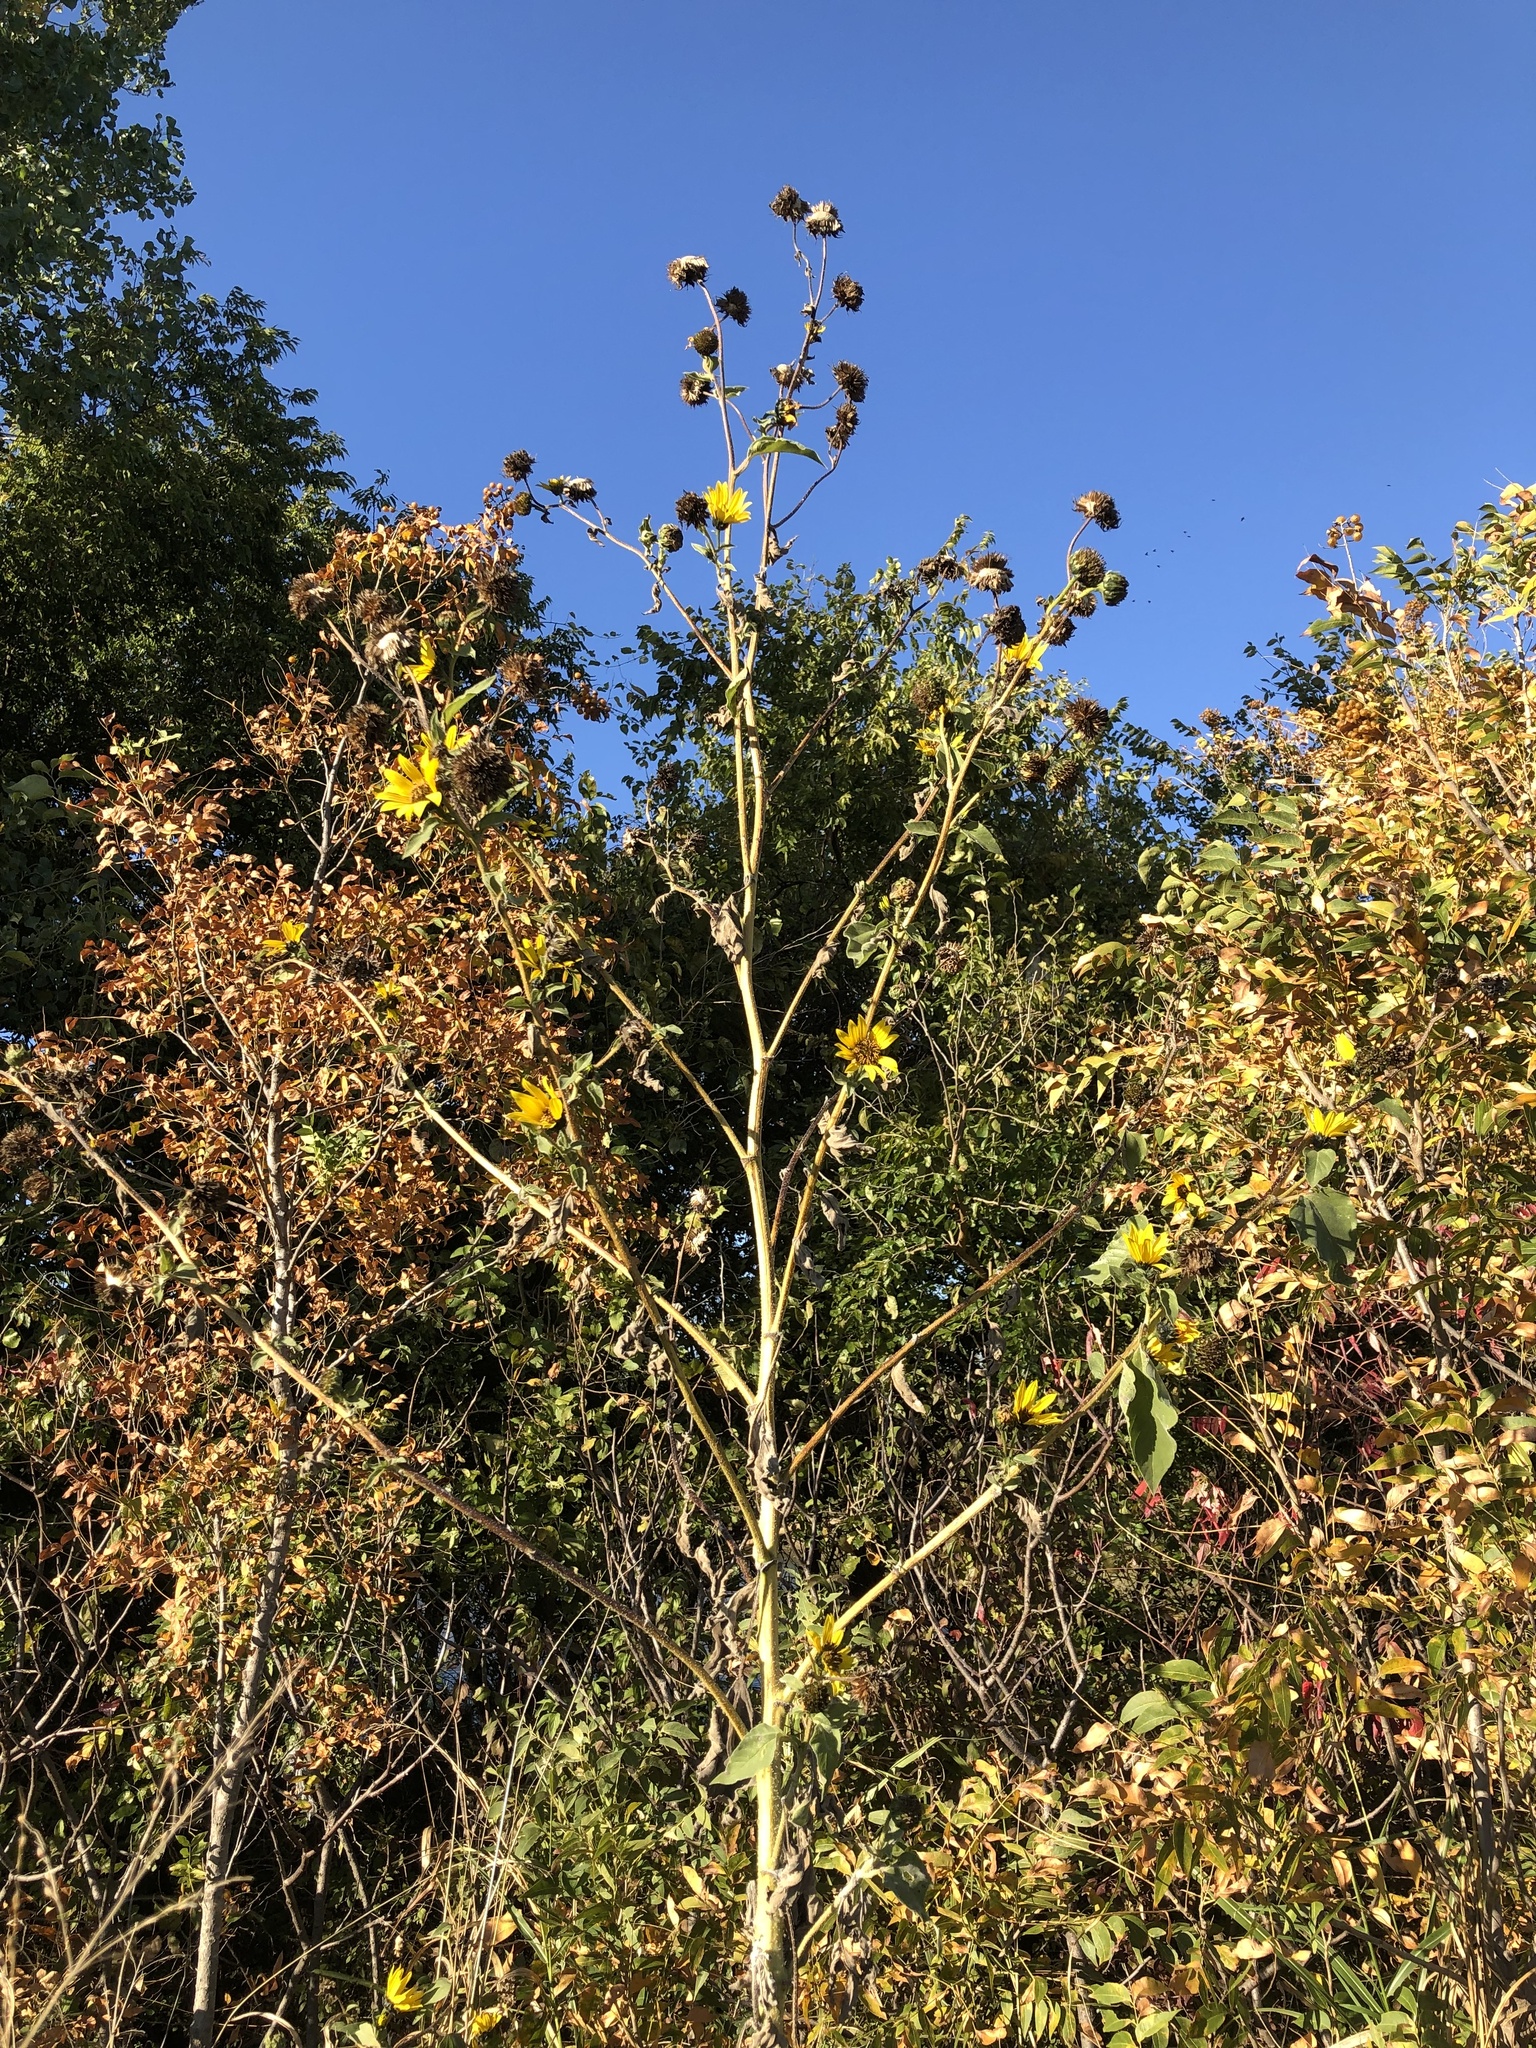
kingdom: Plantae
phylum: Tracheophyta
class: Magnoliopsida
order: Asterales
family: Asteraceae
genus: Helianthus
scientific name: Helianthus annuus
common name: Sunflower
